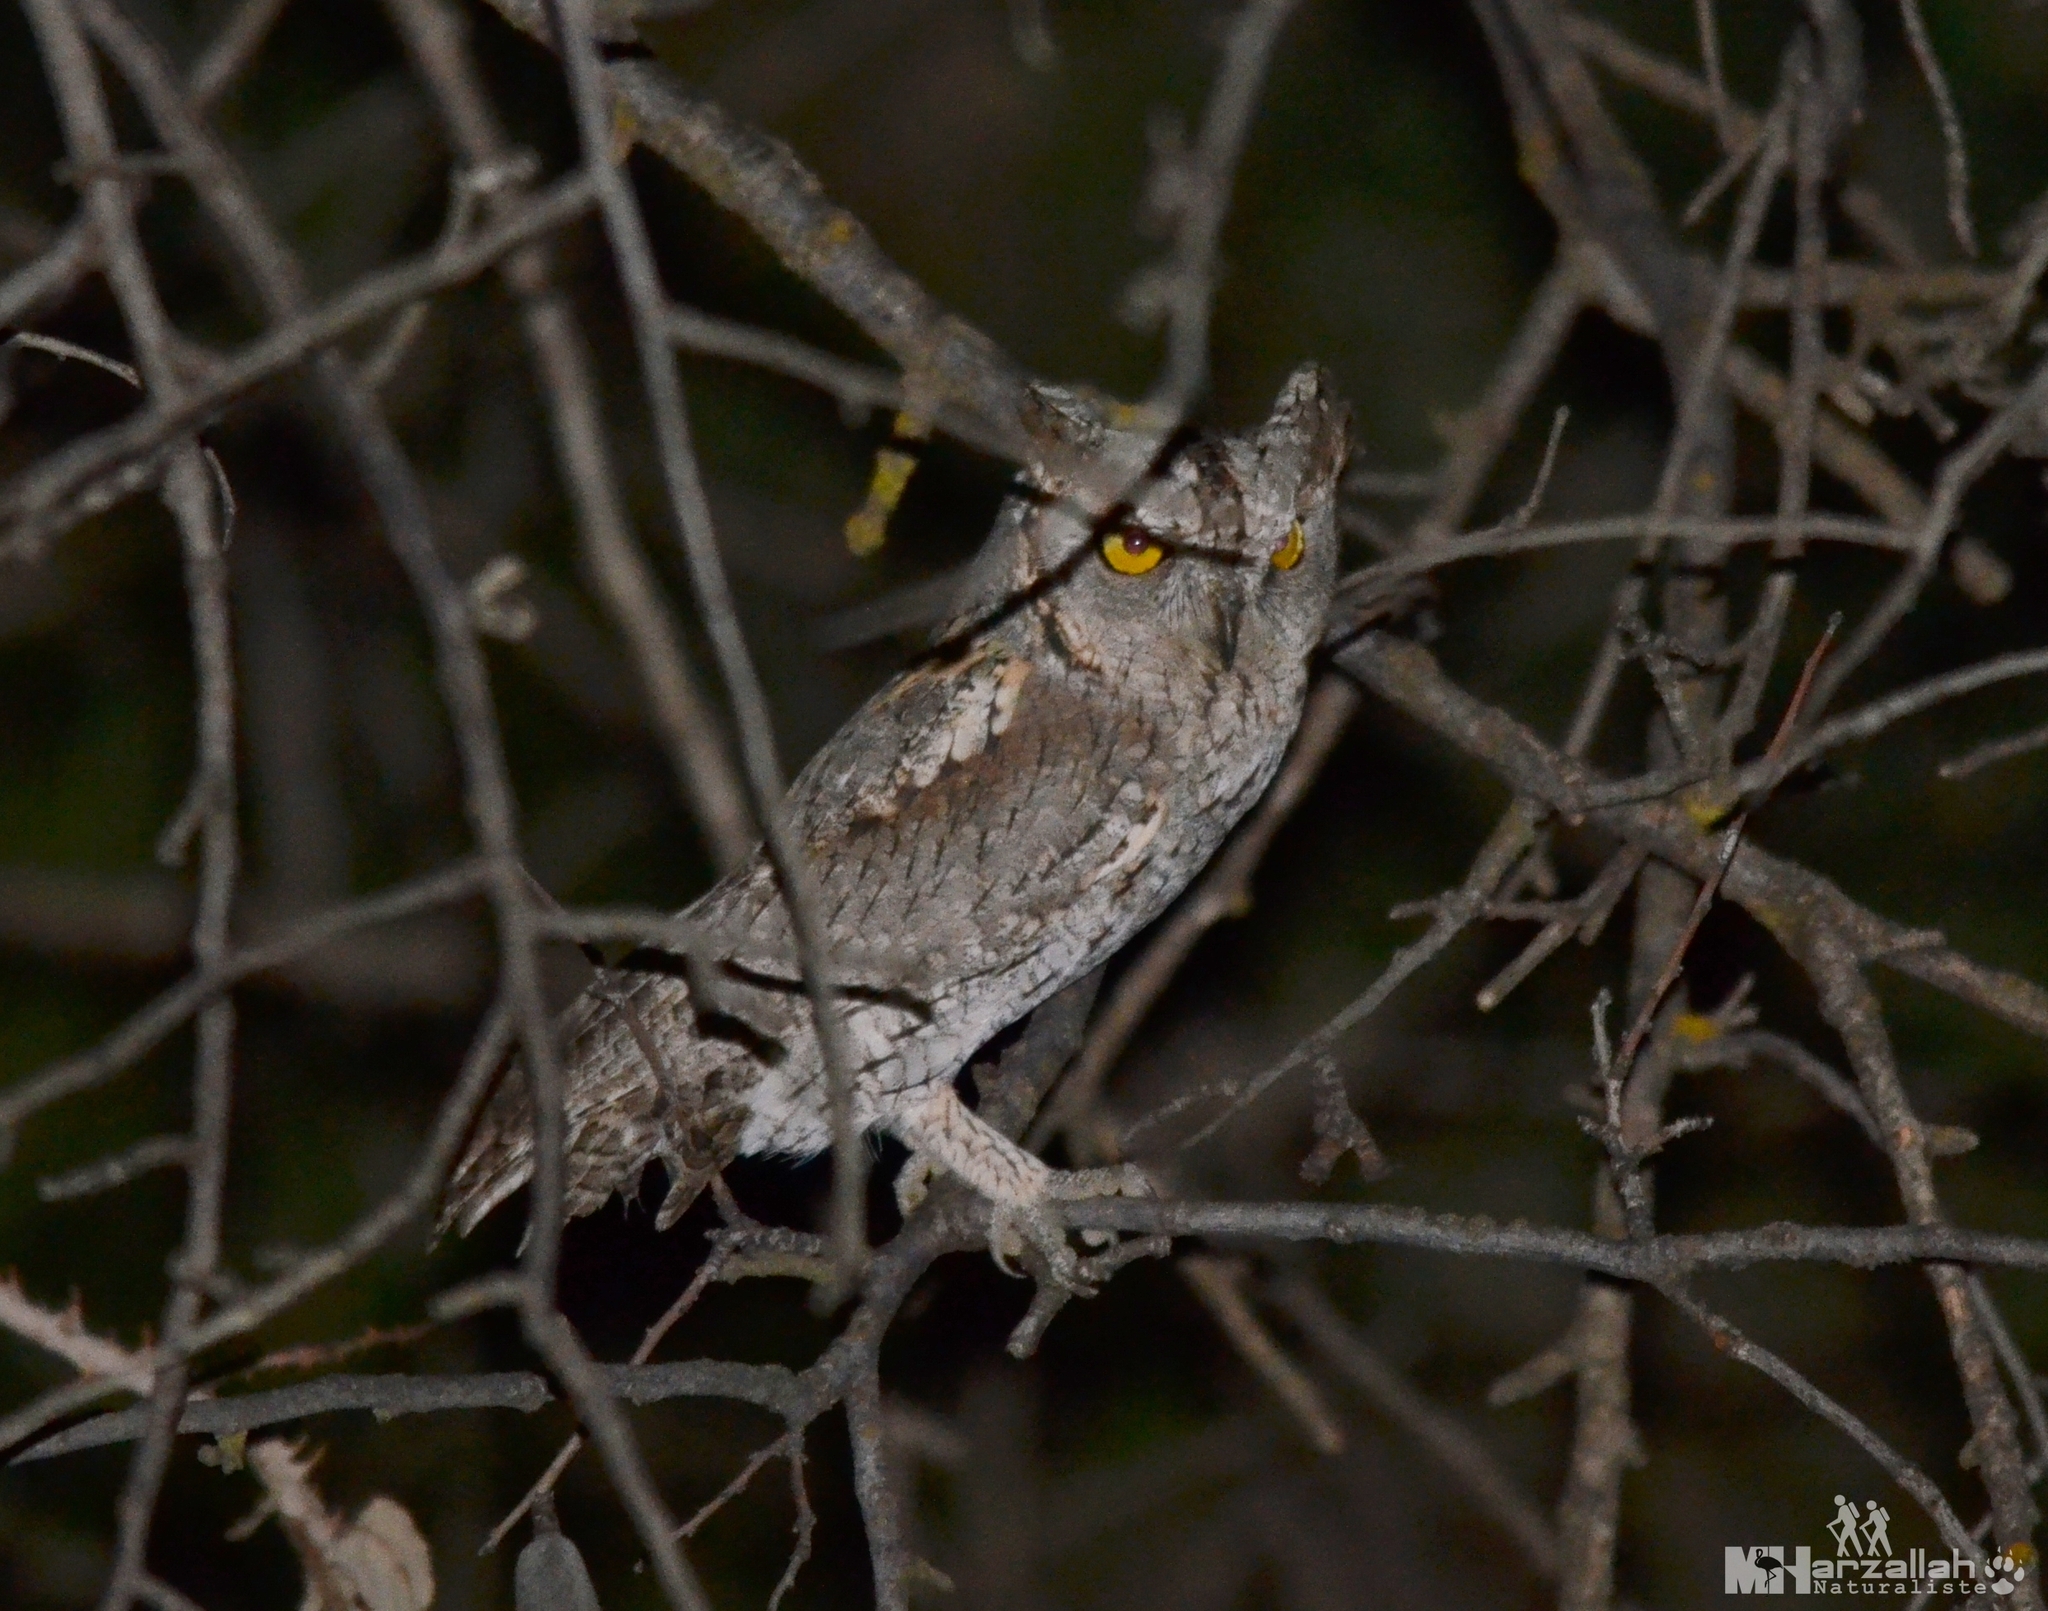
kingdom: Animalia
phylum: Chordata
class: Aves
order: Strigiformes
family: Strigidae
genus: Otus
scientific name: Otus scops
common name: Eurasian scops owl
